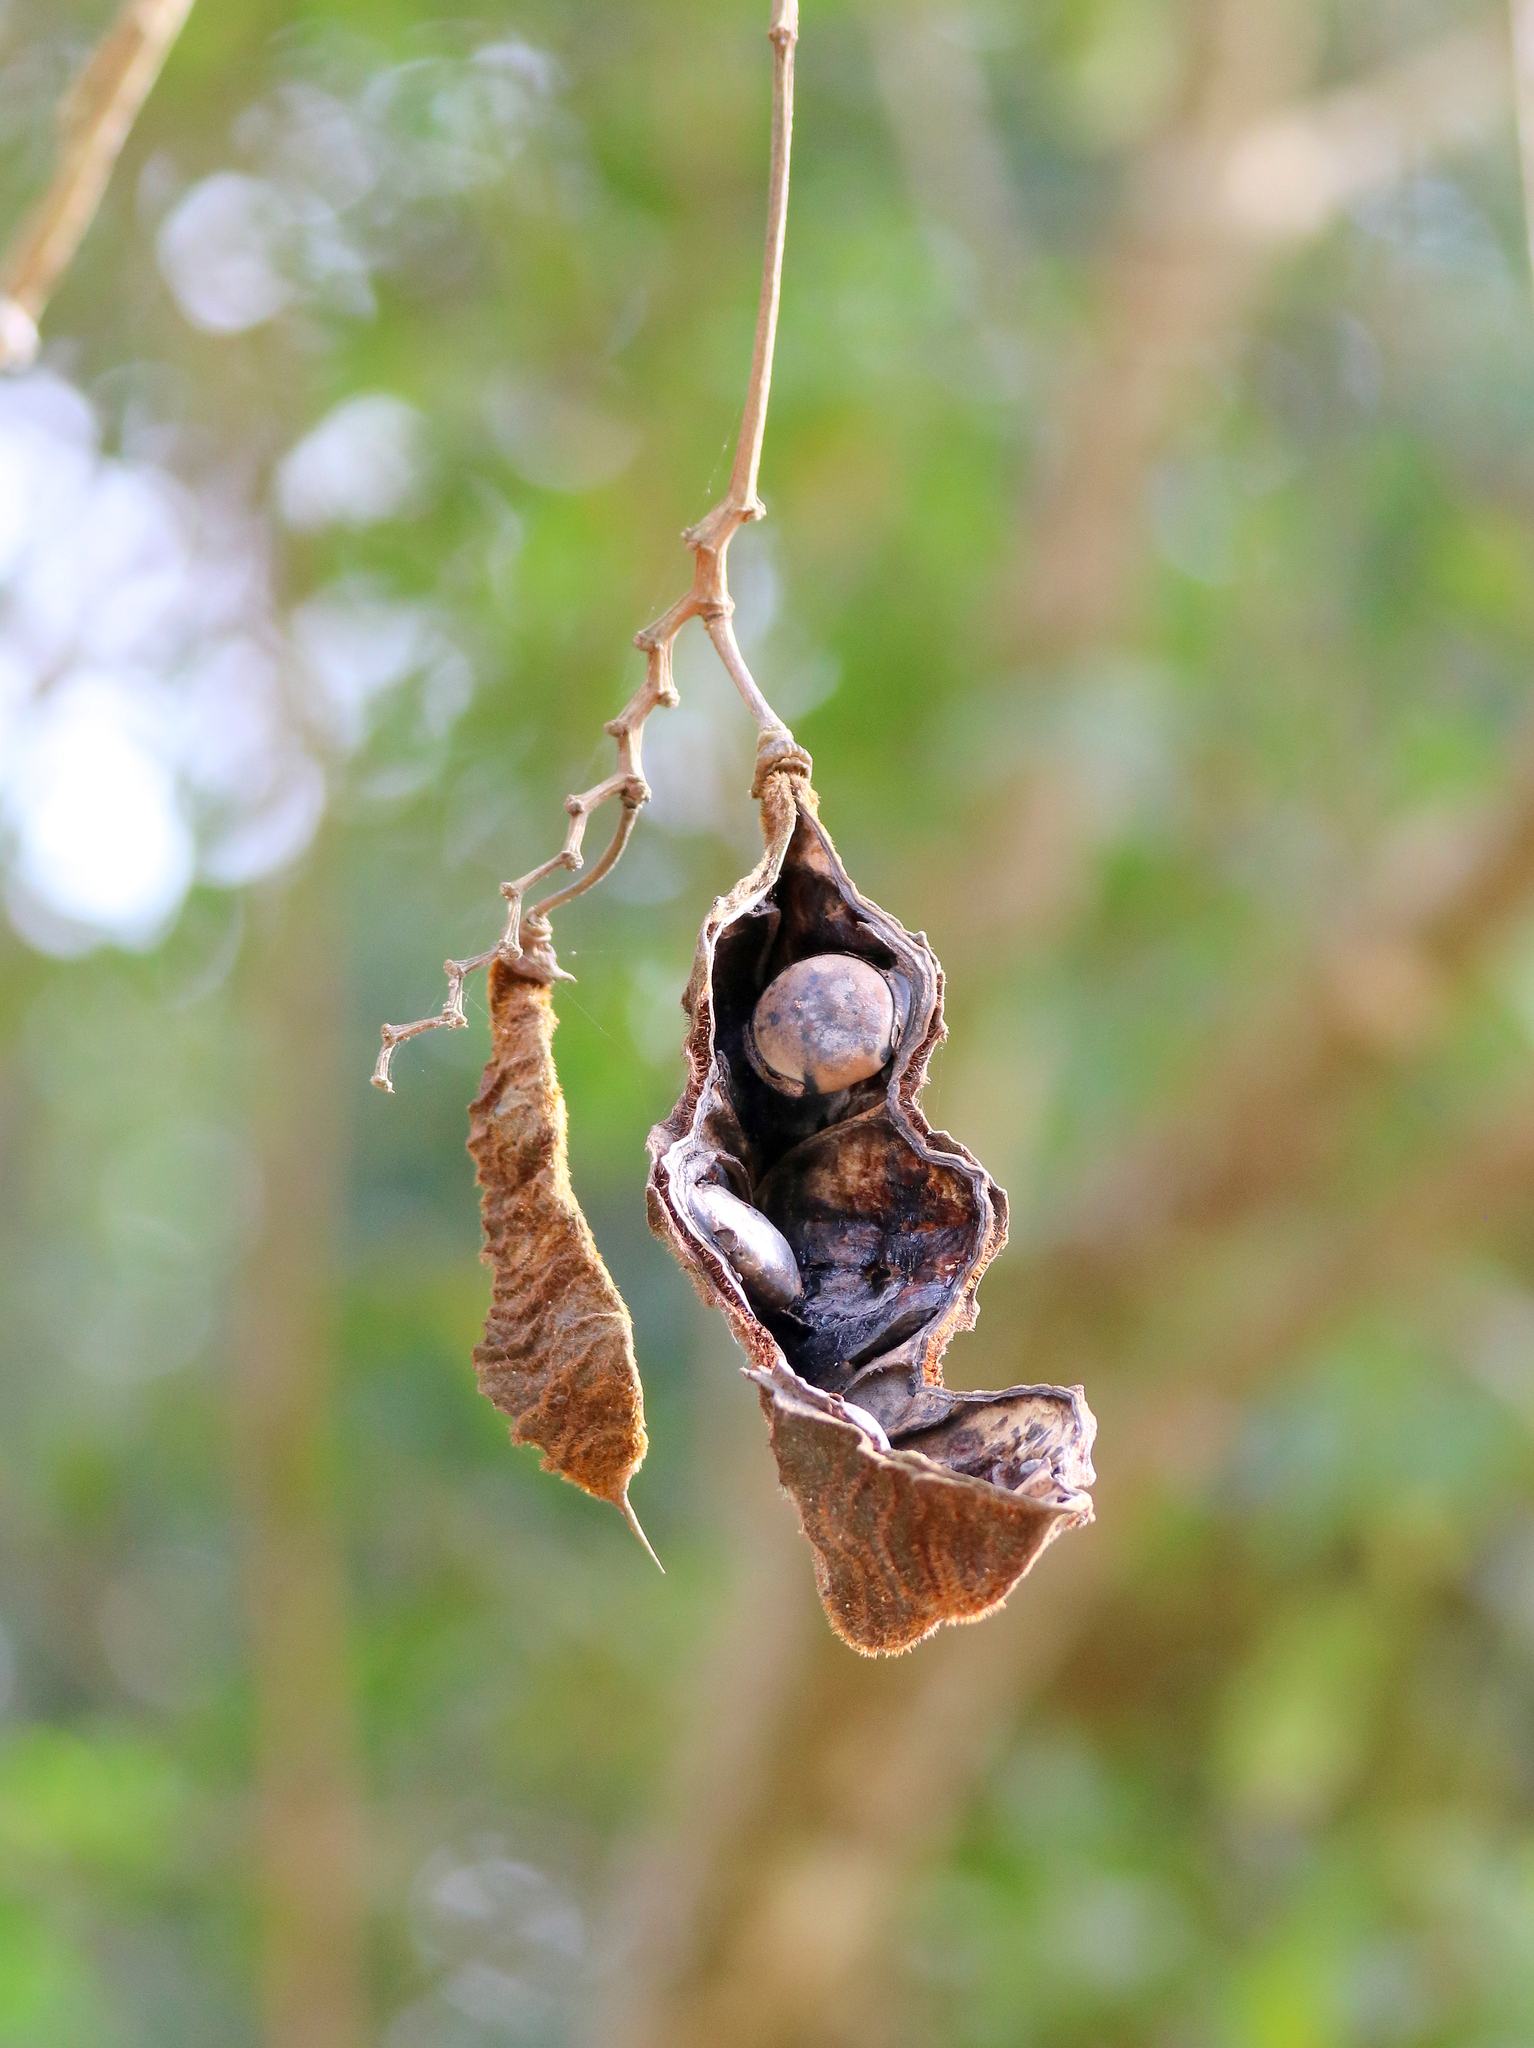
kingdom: Plantae
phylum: Tracheophyta
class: Magnoliopsida
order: Fabales
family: Fabaceae
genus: Mucuna
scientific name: Mucuna urens
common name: Red hamburger bean
